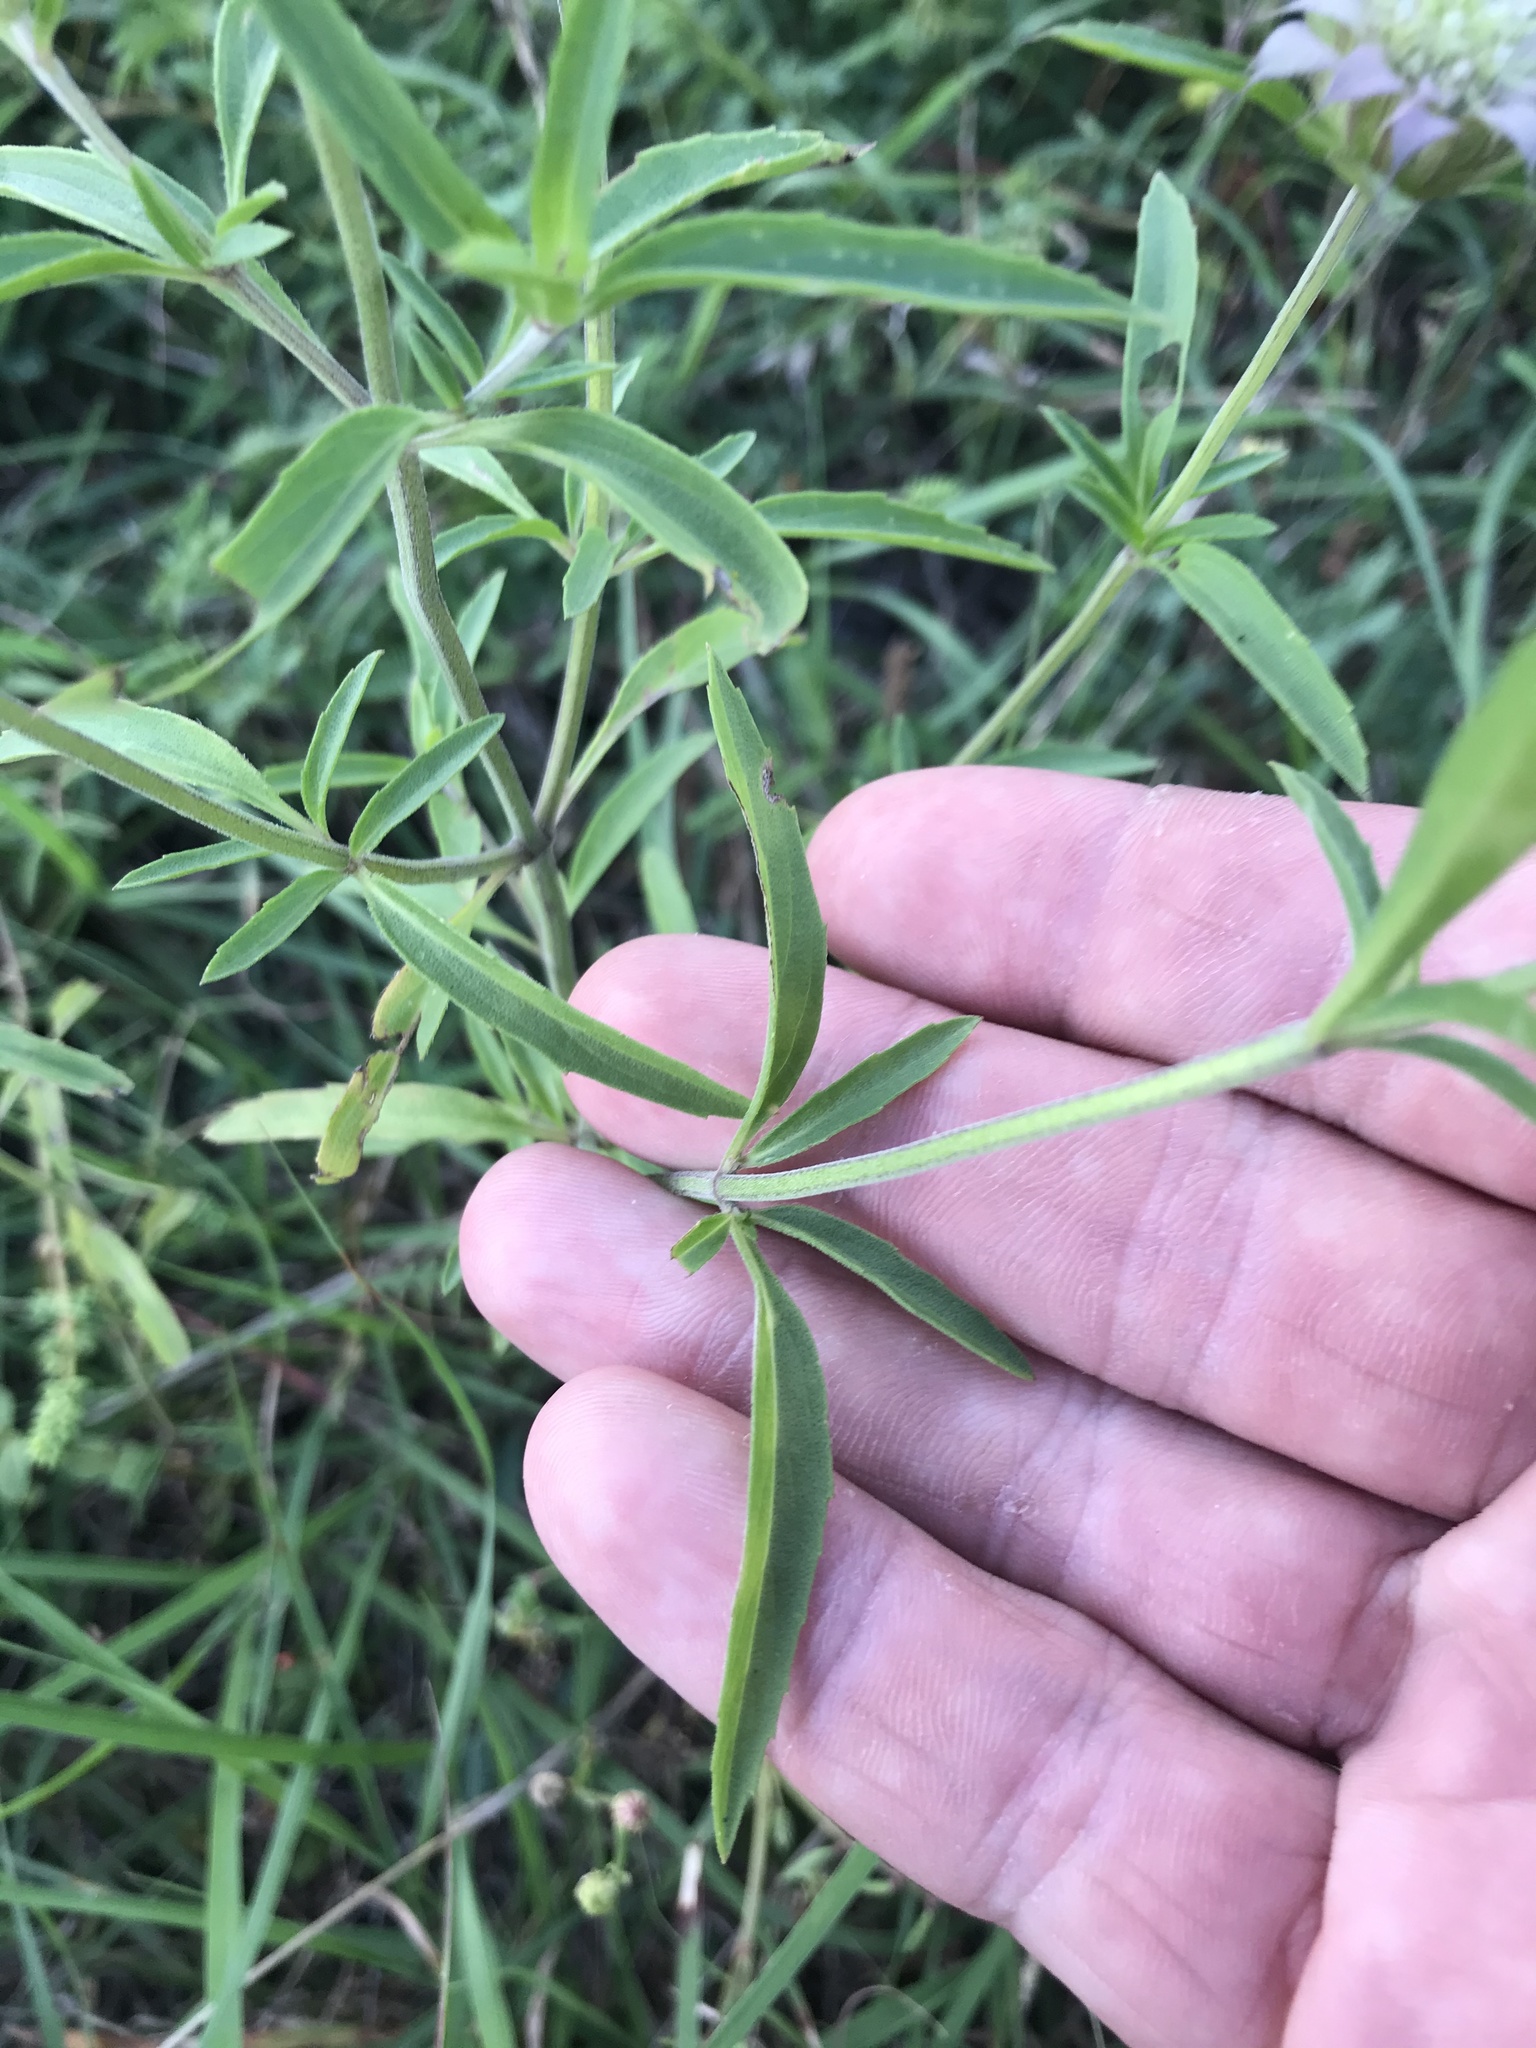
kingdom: Plantae
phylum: Tracheophyta
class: Magnoliopsida
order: Lamiales
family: Lamiaceae
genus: Monarda
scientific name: Monarda citriodora
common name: Lemon beebalm
